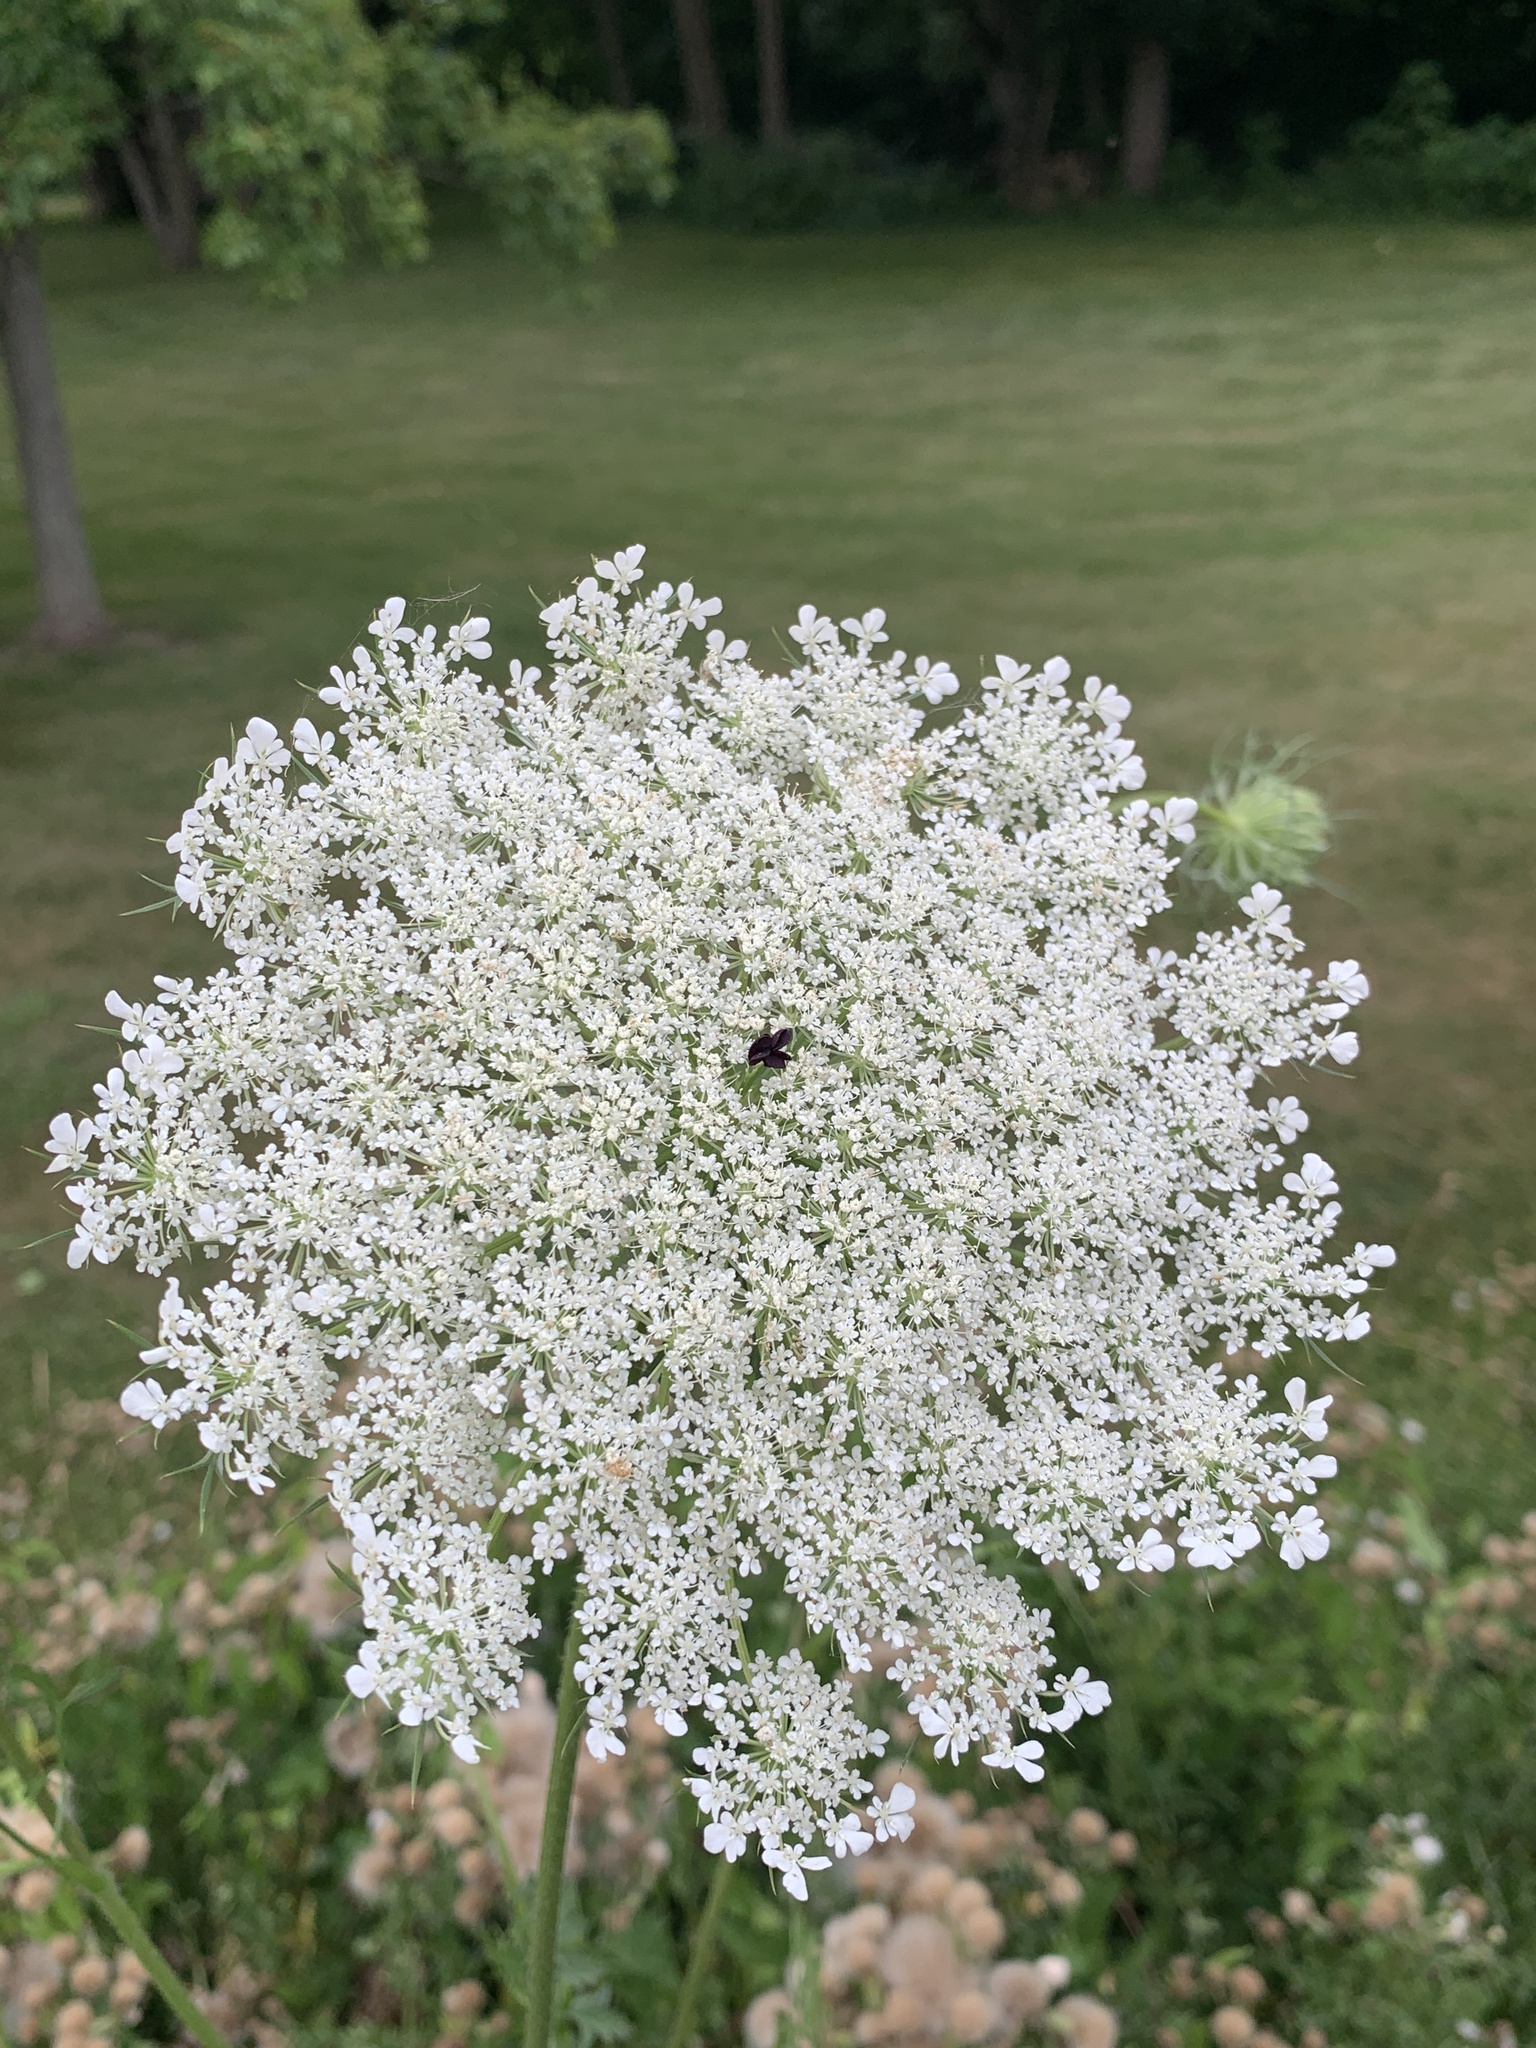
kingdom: Plantae
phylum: Tracheophyta
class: Magnoliopsida
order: Apiales
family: Apiaceae
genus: Daucus
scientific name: Daucus carota
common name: Wild carrot
